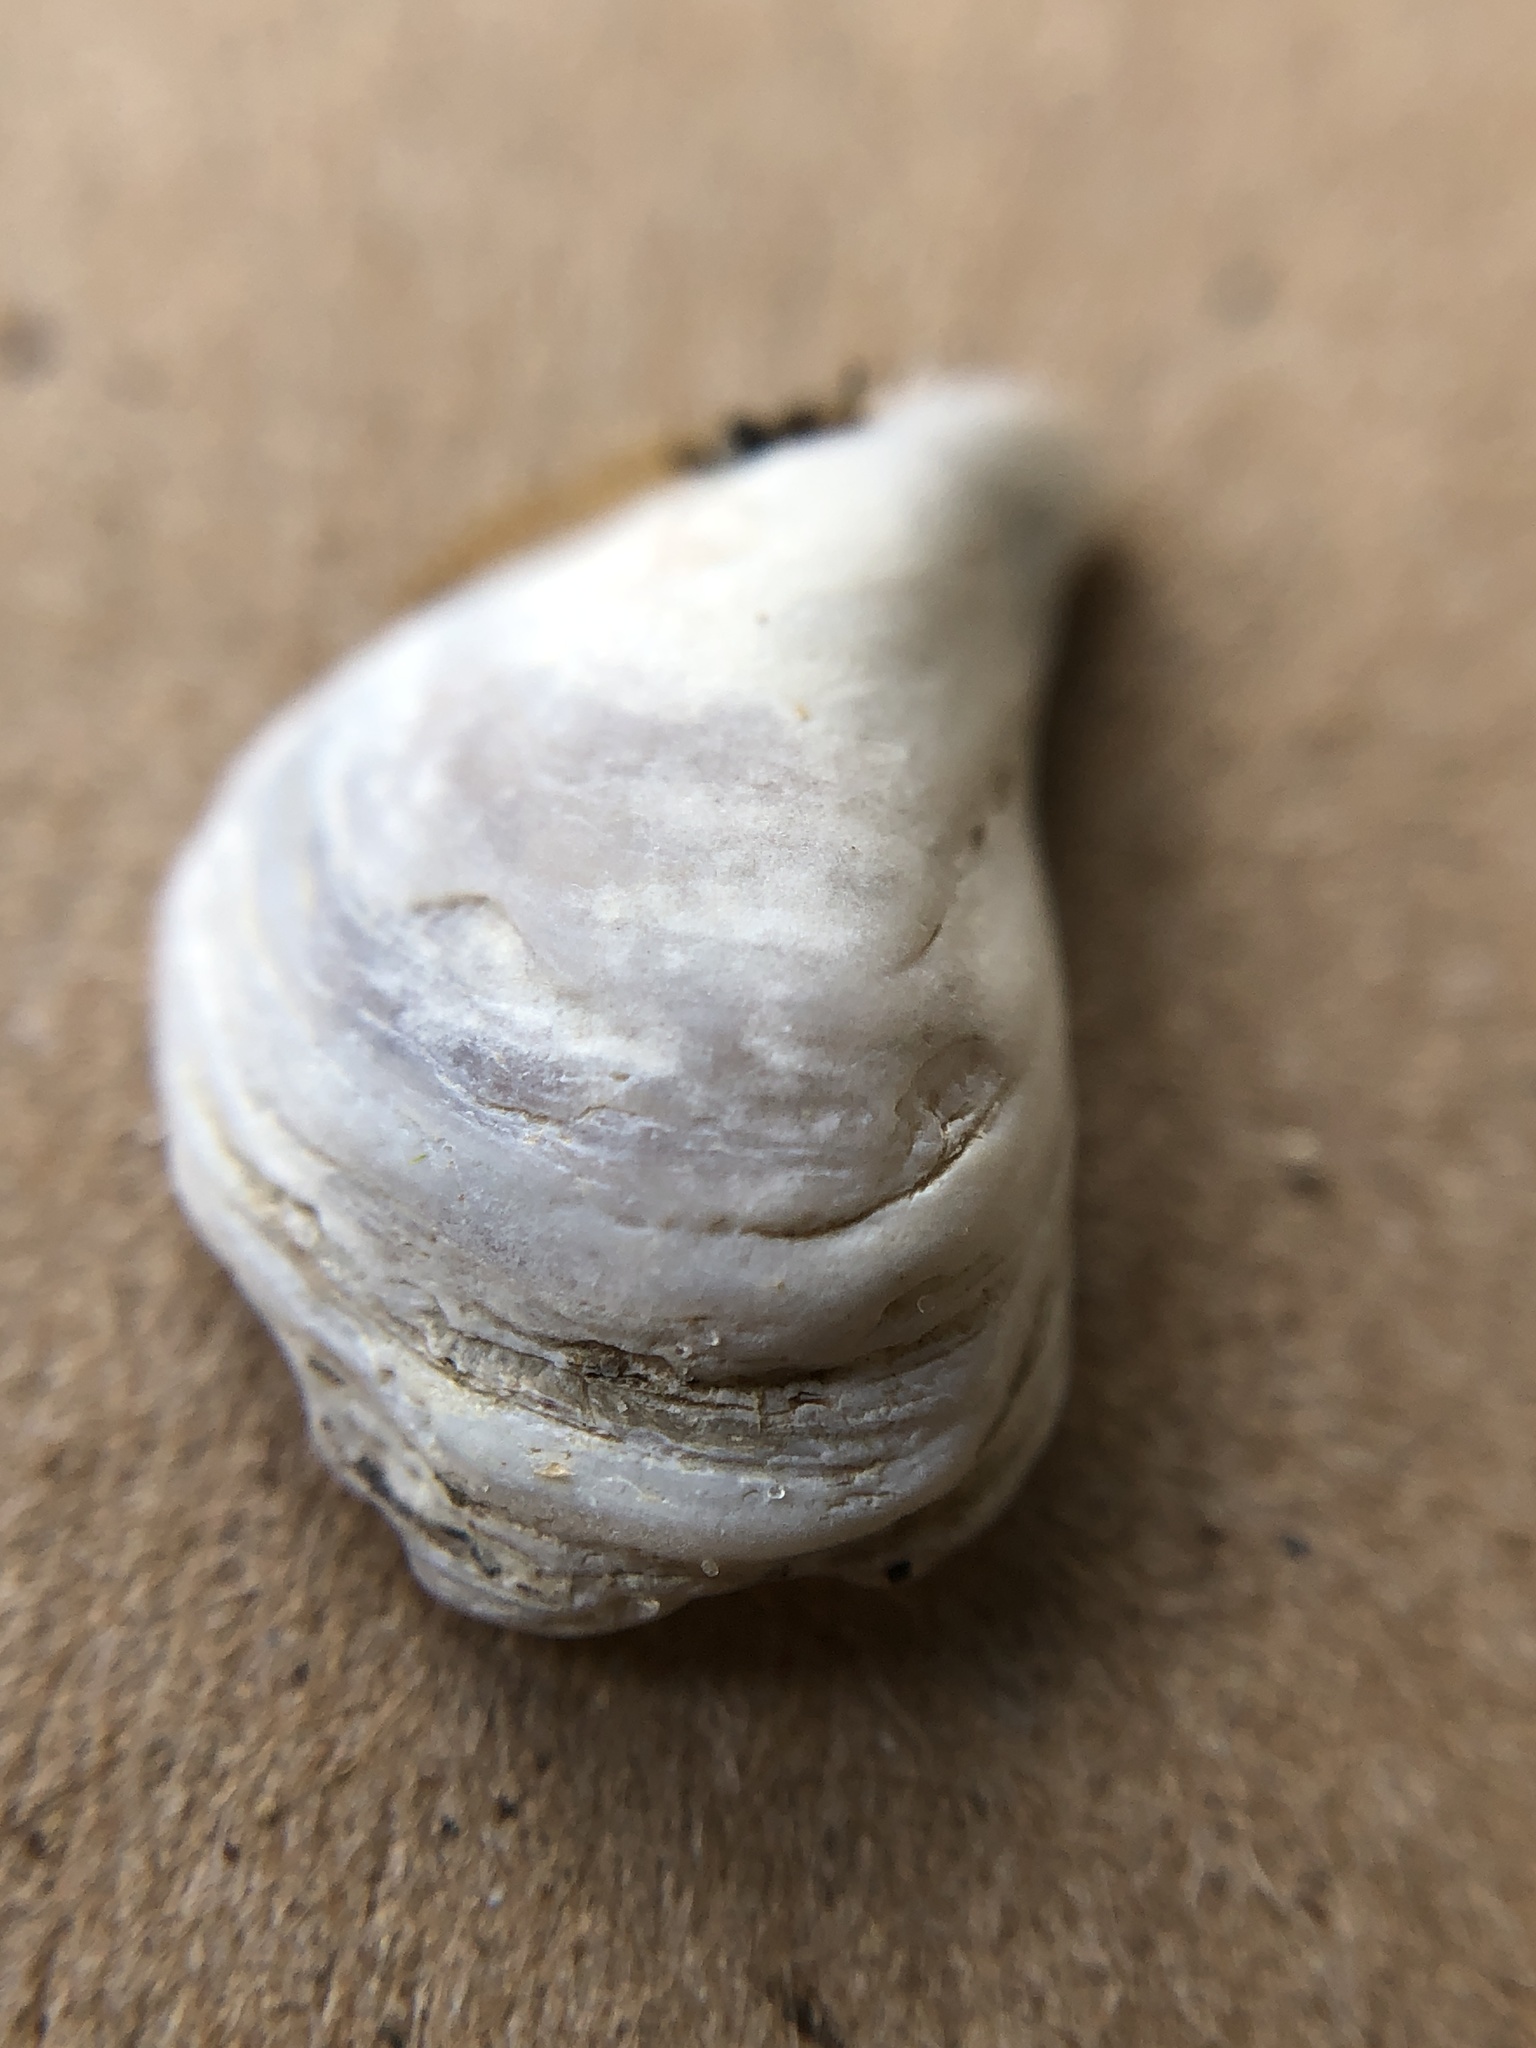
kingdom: Animalia
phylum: Mollusca
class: Bivalvia
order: Myida
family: Dreissenidae
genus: Dreissena
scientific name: Dreissena bugensis
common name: Quagga mussel
